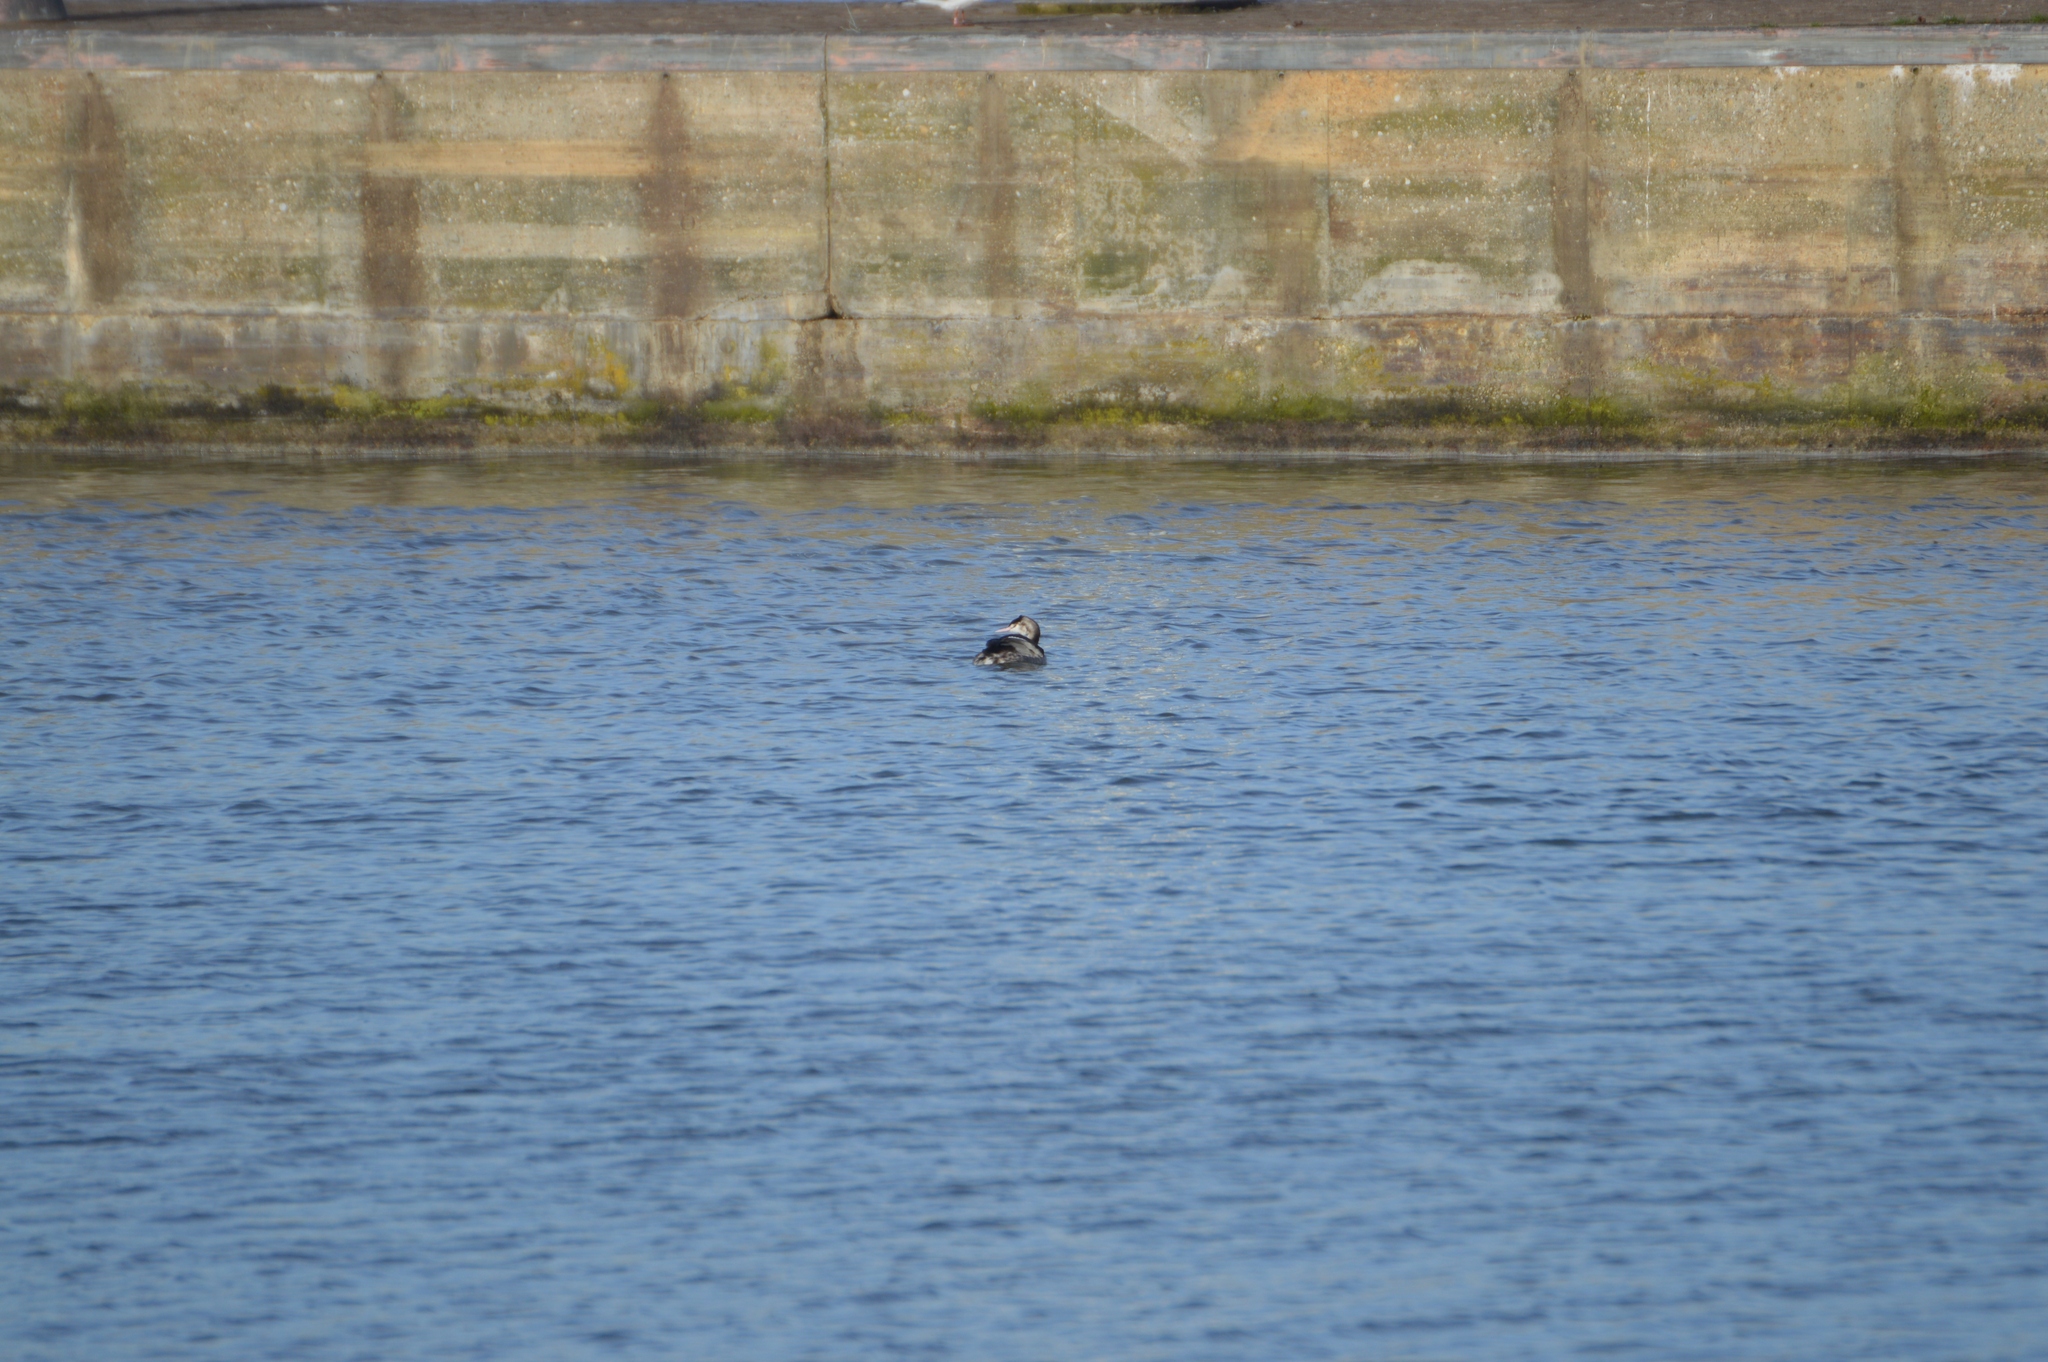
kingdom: Animalia
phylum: Chordata
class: Aves
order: Podicipediformes
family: Podicipedidae
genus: Podiceps
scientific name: Podiceps cristatus
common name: Great crested grebe
